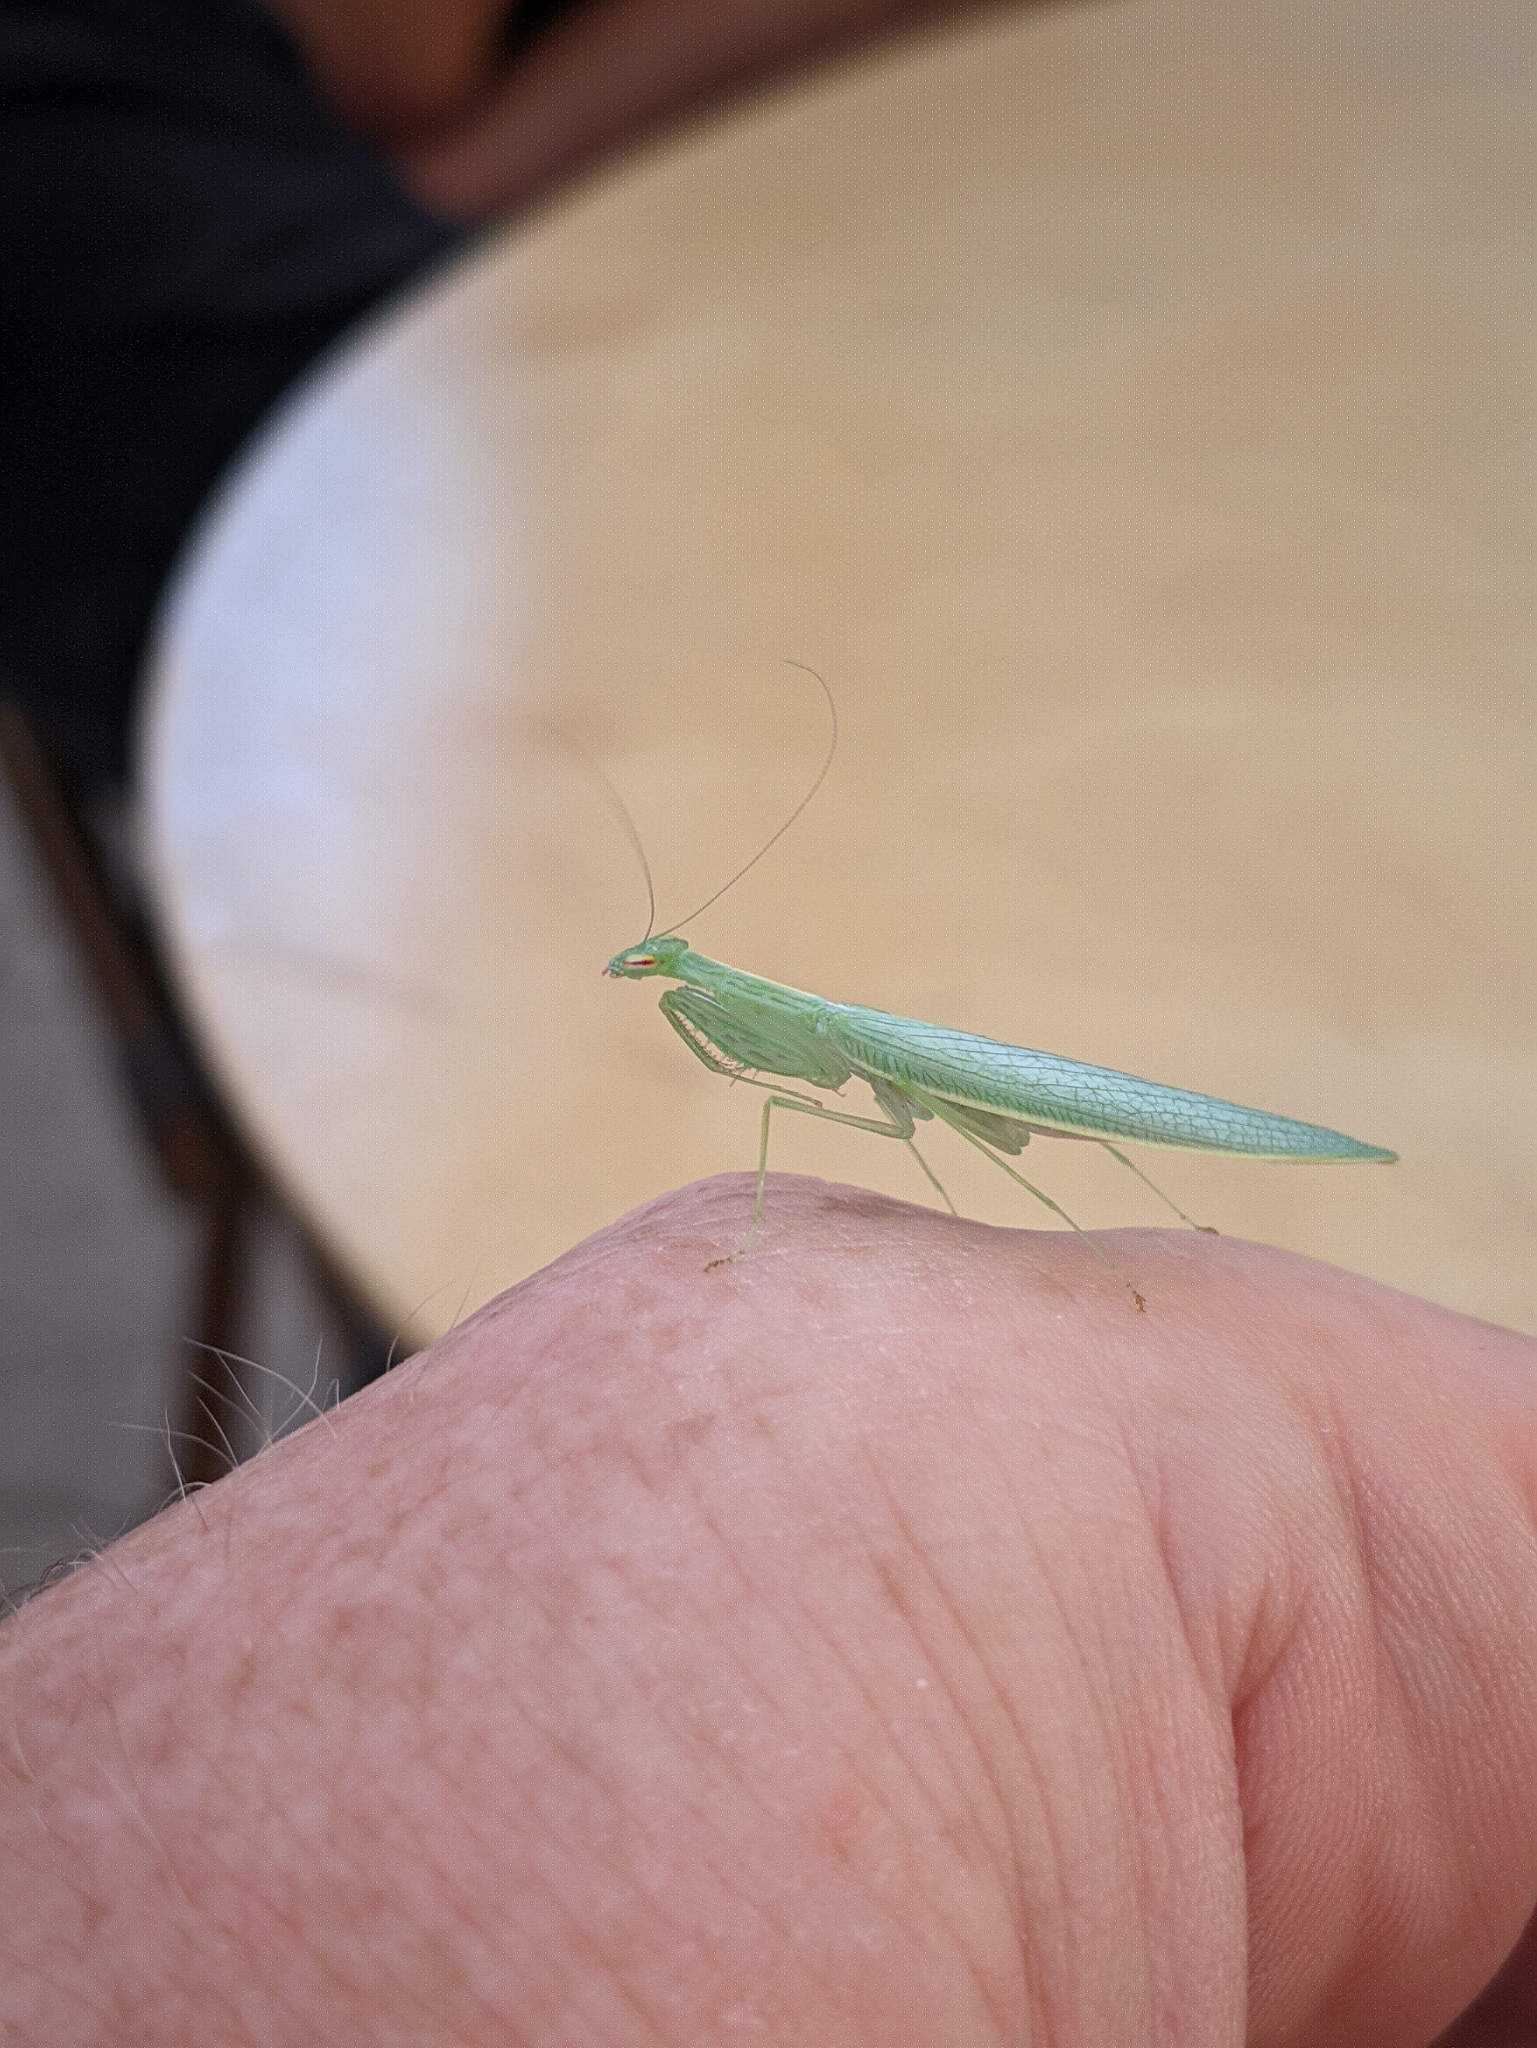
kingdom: Animalia
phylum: Arthropoda
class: Insecta
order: Mantodea
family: Nanomantidae
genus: Kongobatha
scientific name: Kongobatha diademata
